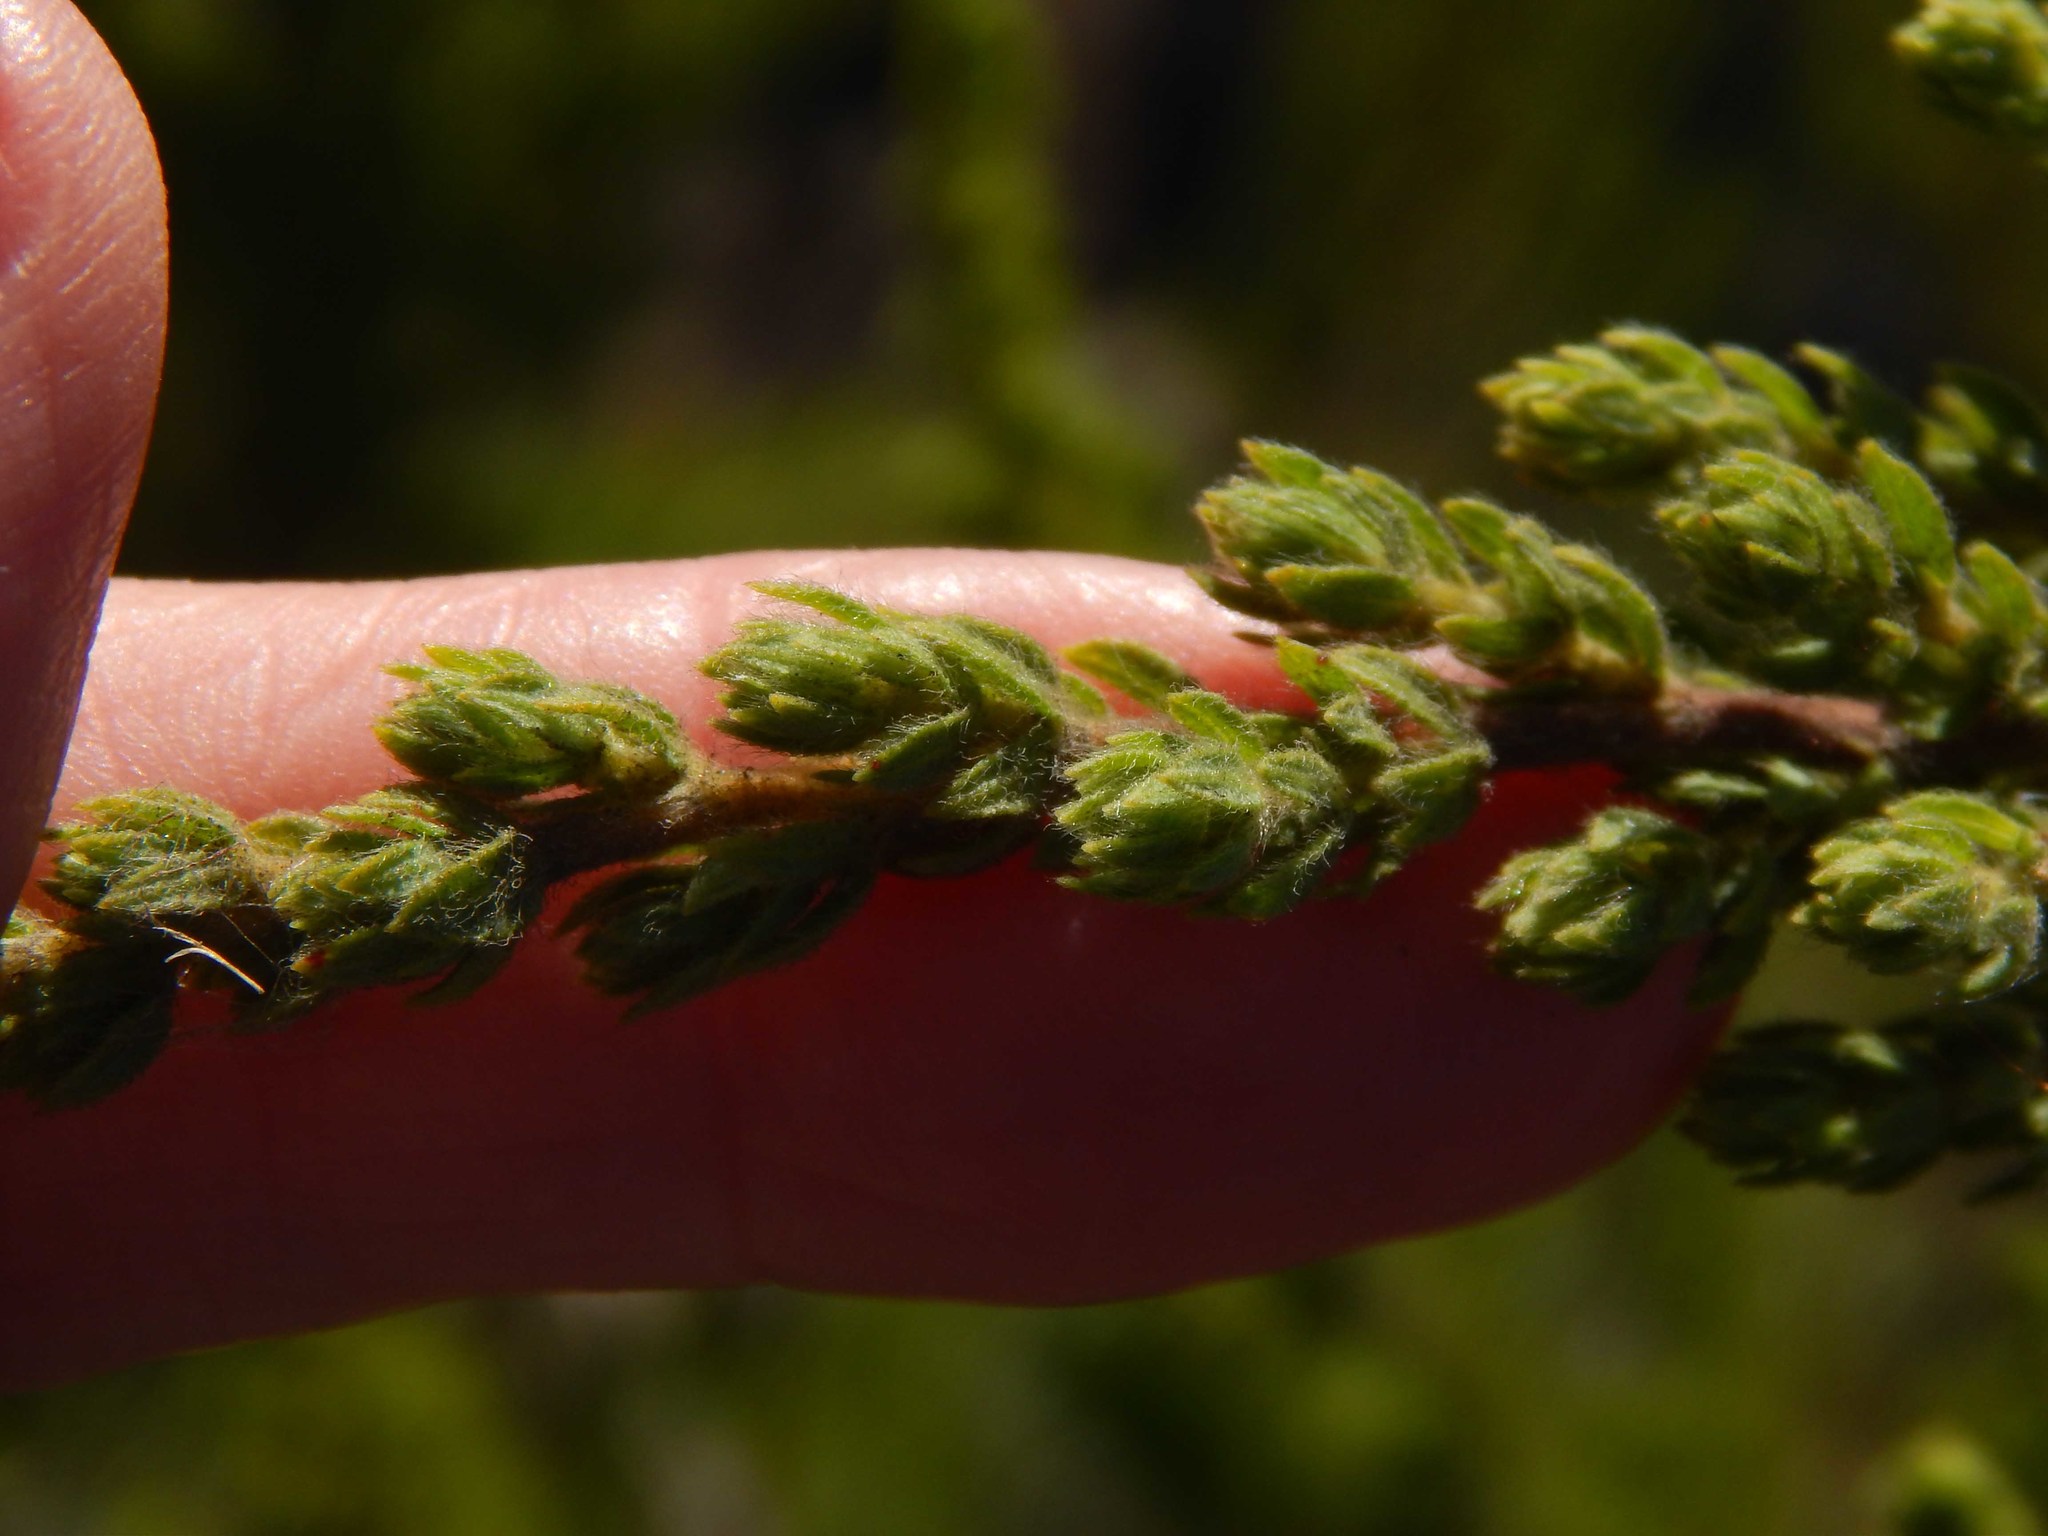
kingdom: Plantae
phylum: Tracheophyta
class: Magnoliopsida
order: Rosales
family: Rosaceae
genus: Cliffortia
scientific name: Cliffortia polygonifolia
